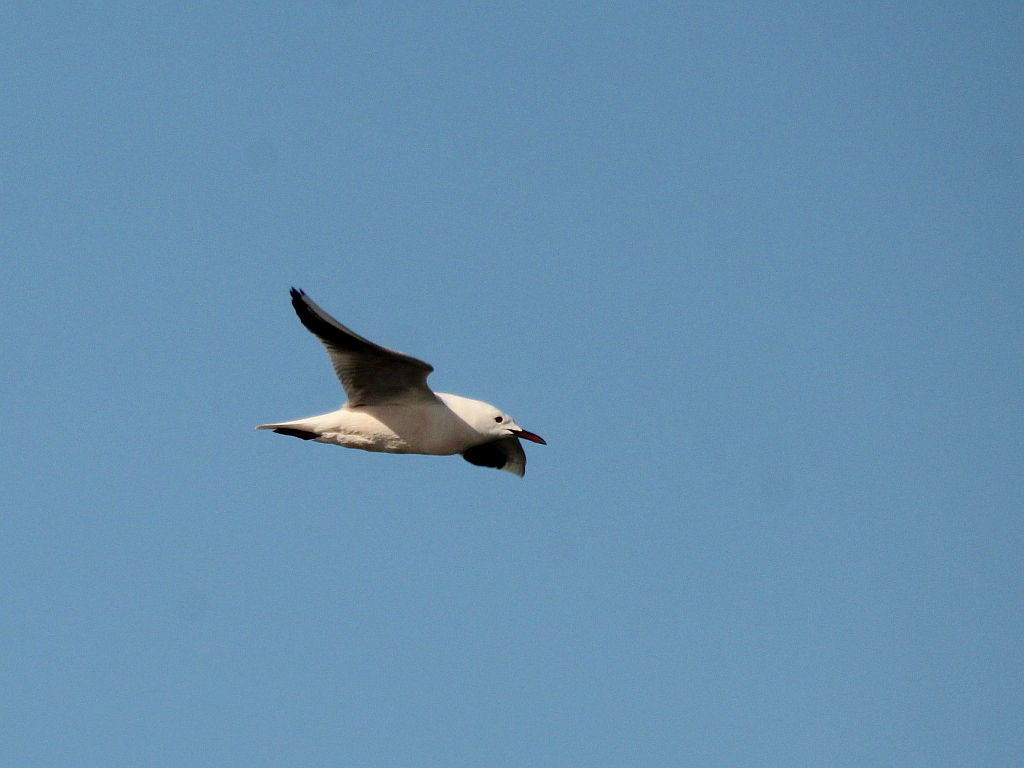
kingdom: Animalia
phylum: Chordata
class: Aves
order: Charadriiformes
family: Laridae
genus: Chroicocephalus
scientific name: Chroicocephalus genei
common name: Slender-billed gull
